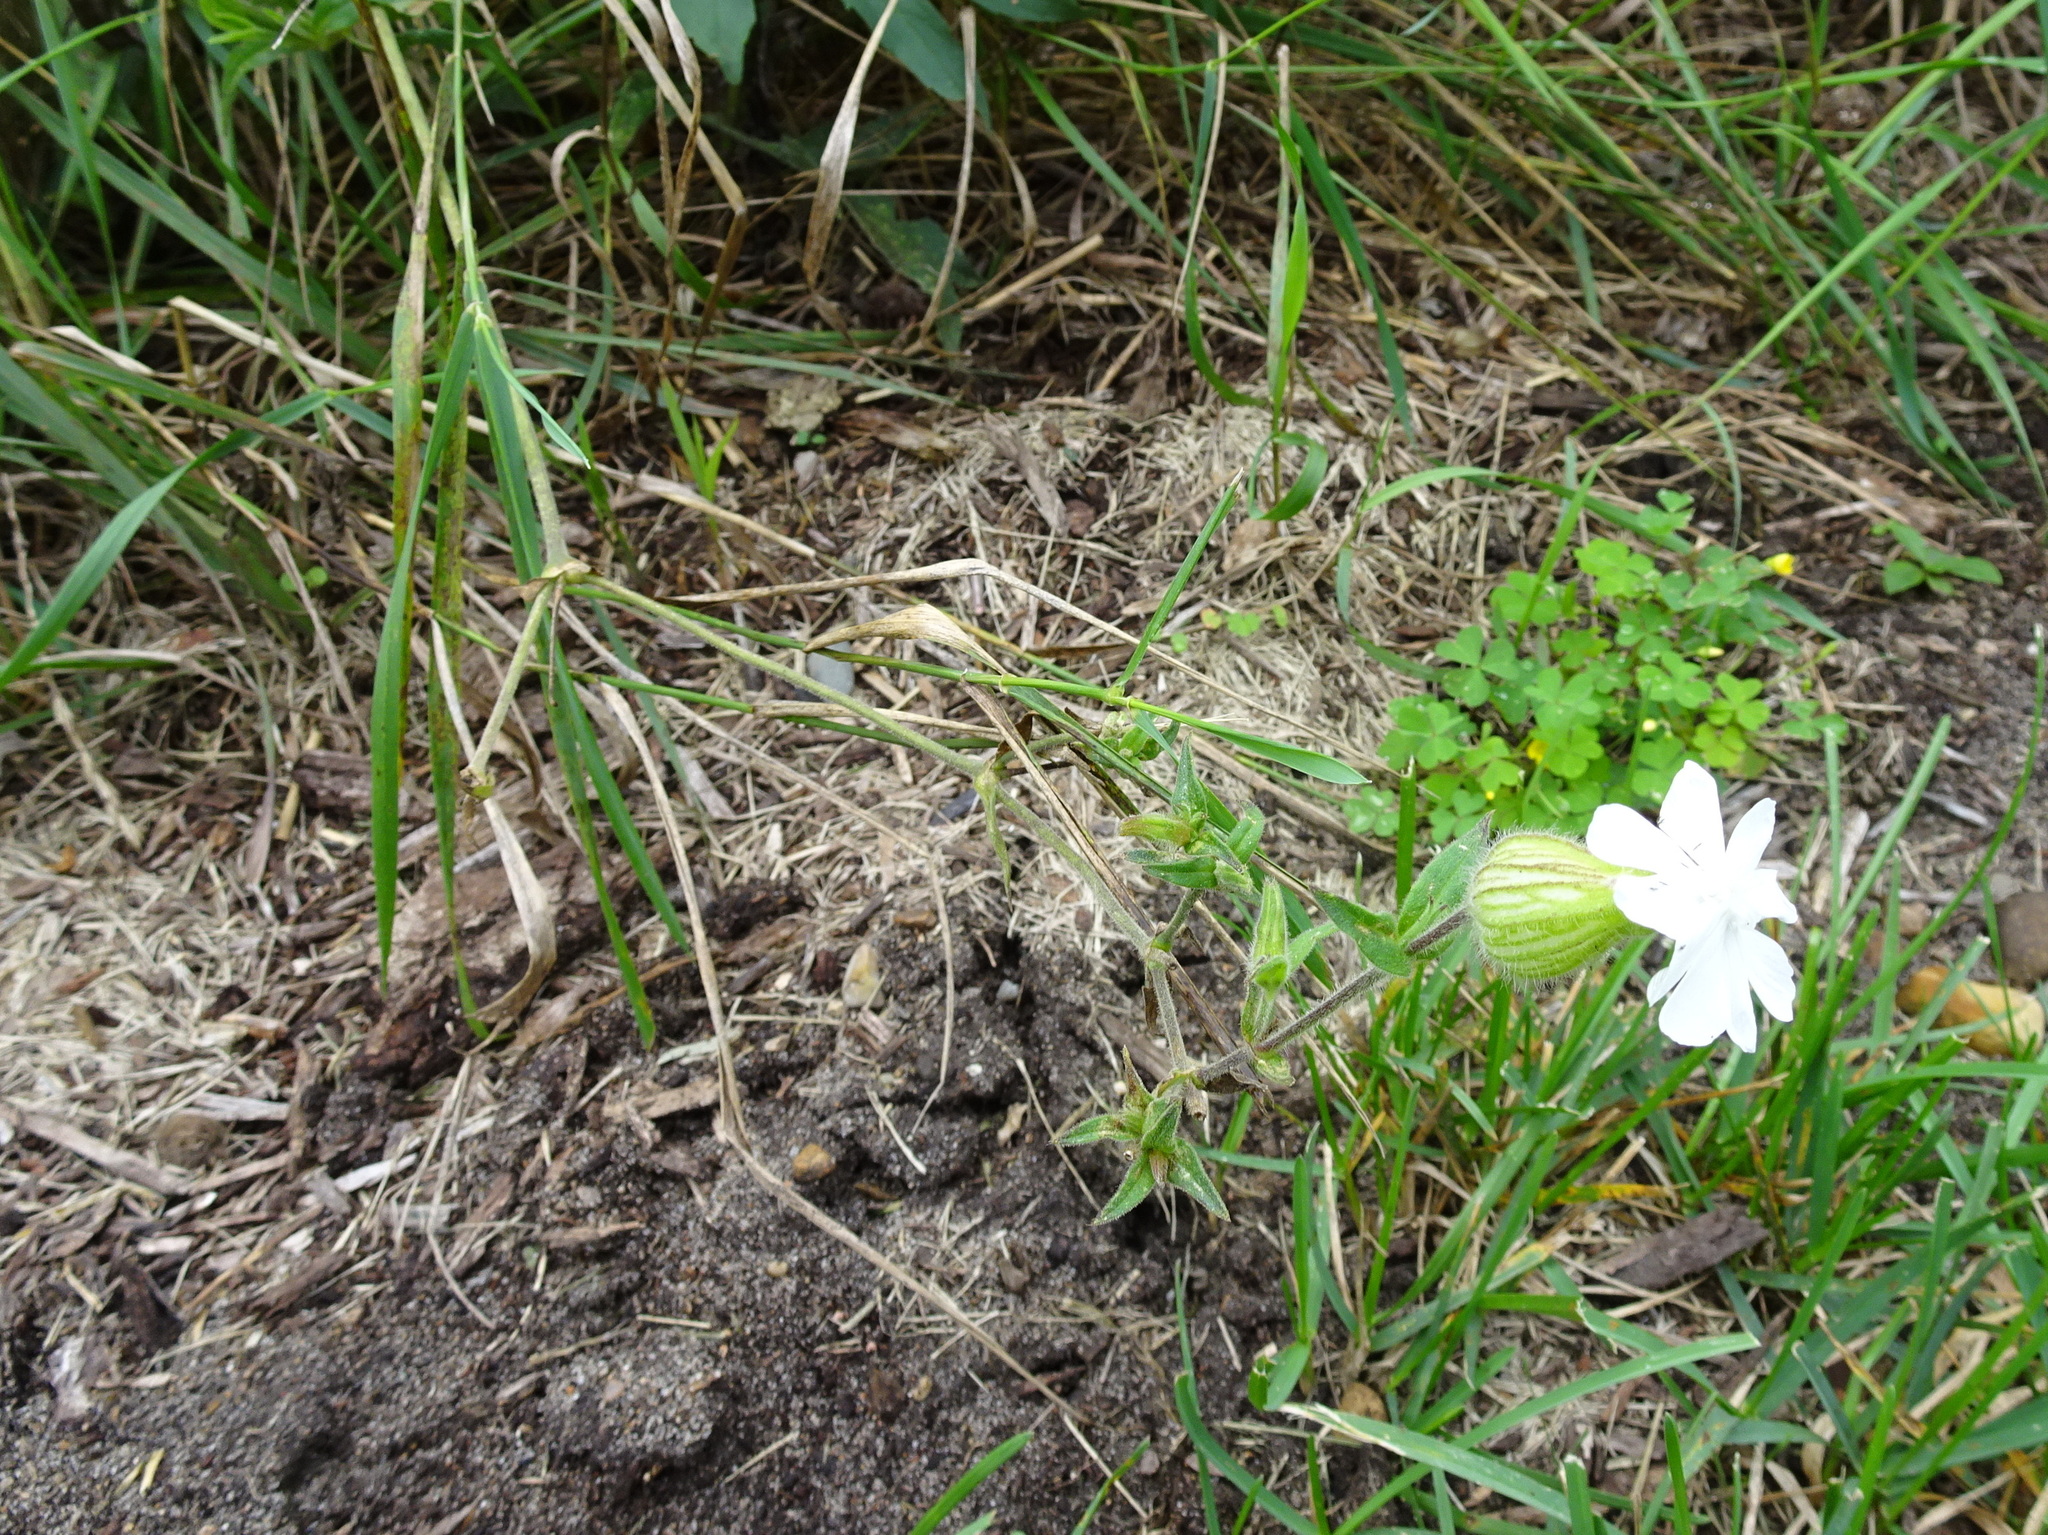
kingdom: Plantae
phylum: Tracheophyta
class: Magnoliopsida
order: Caryophyllales
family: Caryophyllaceae
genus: Silene
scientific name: Silene latifolia
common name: White campion
